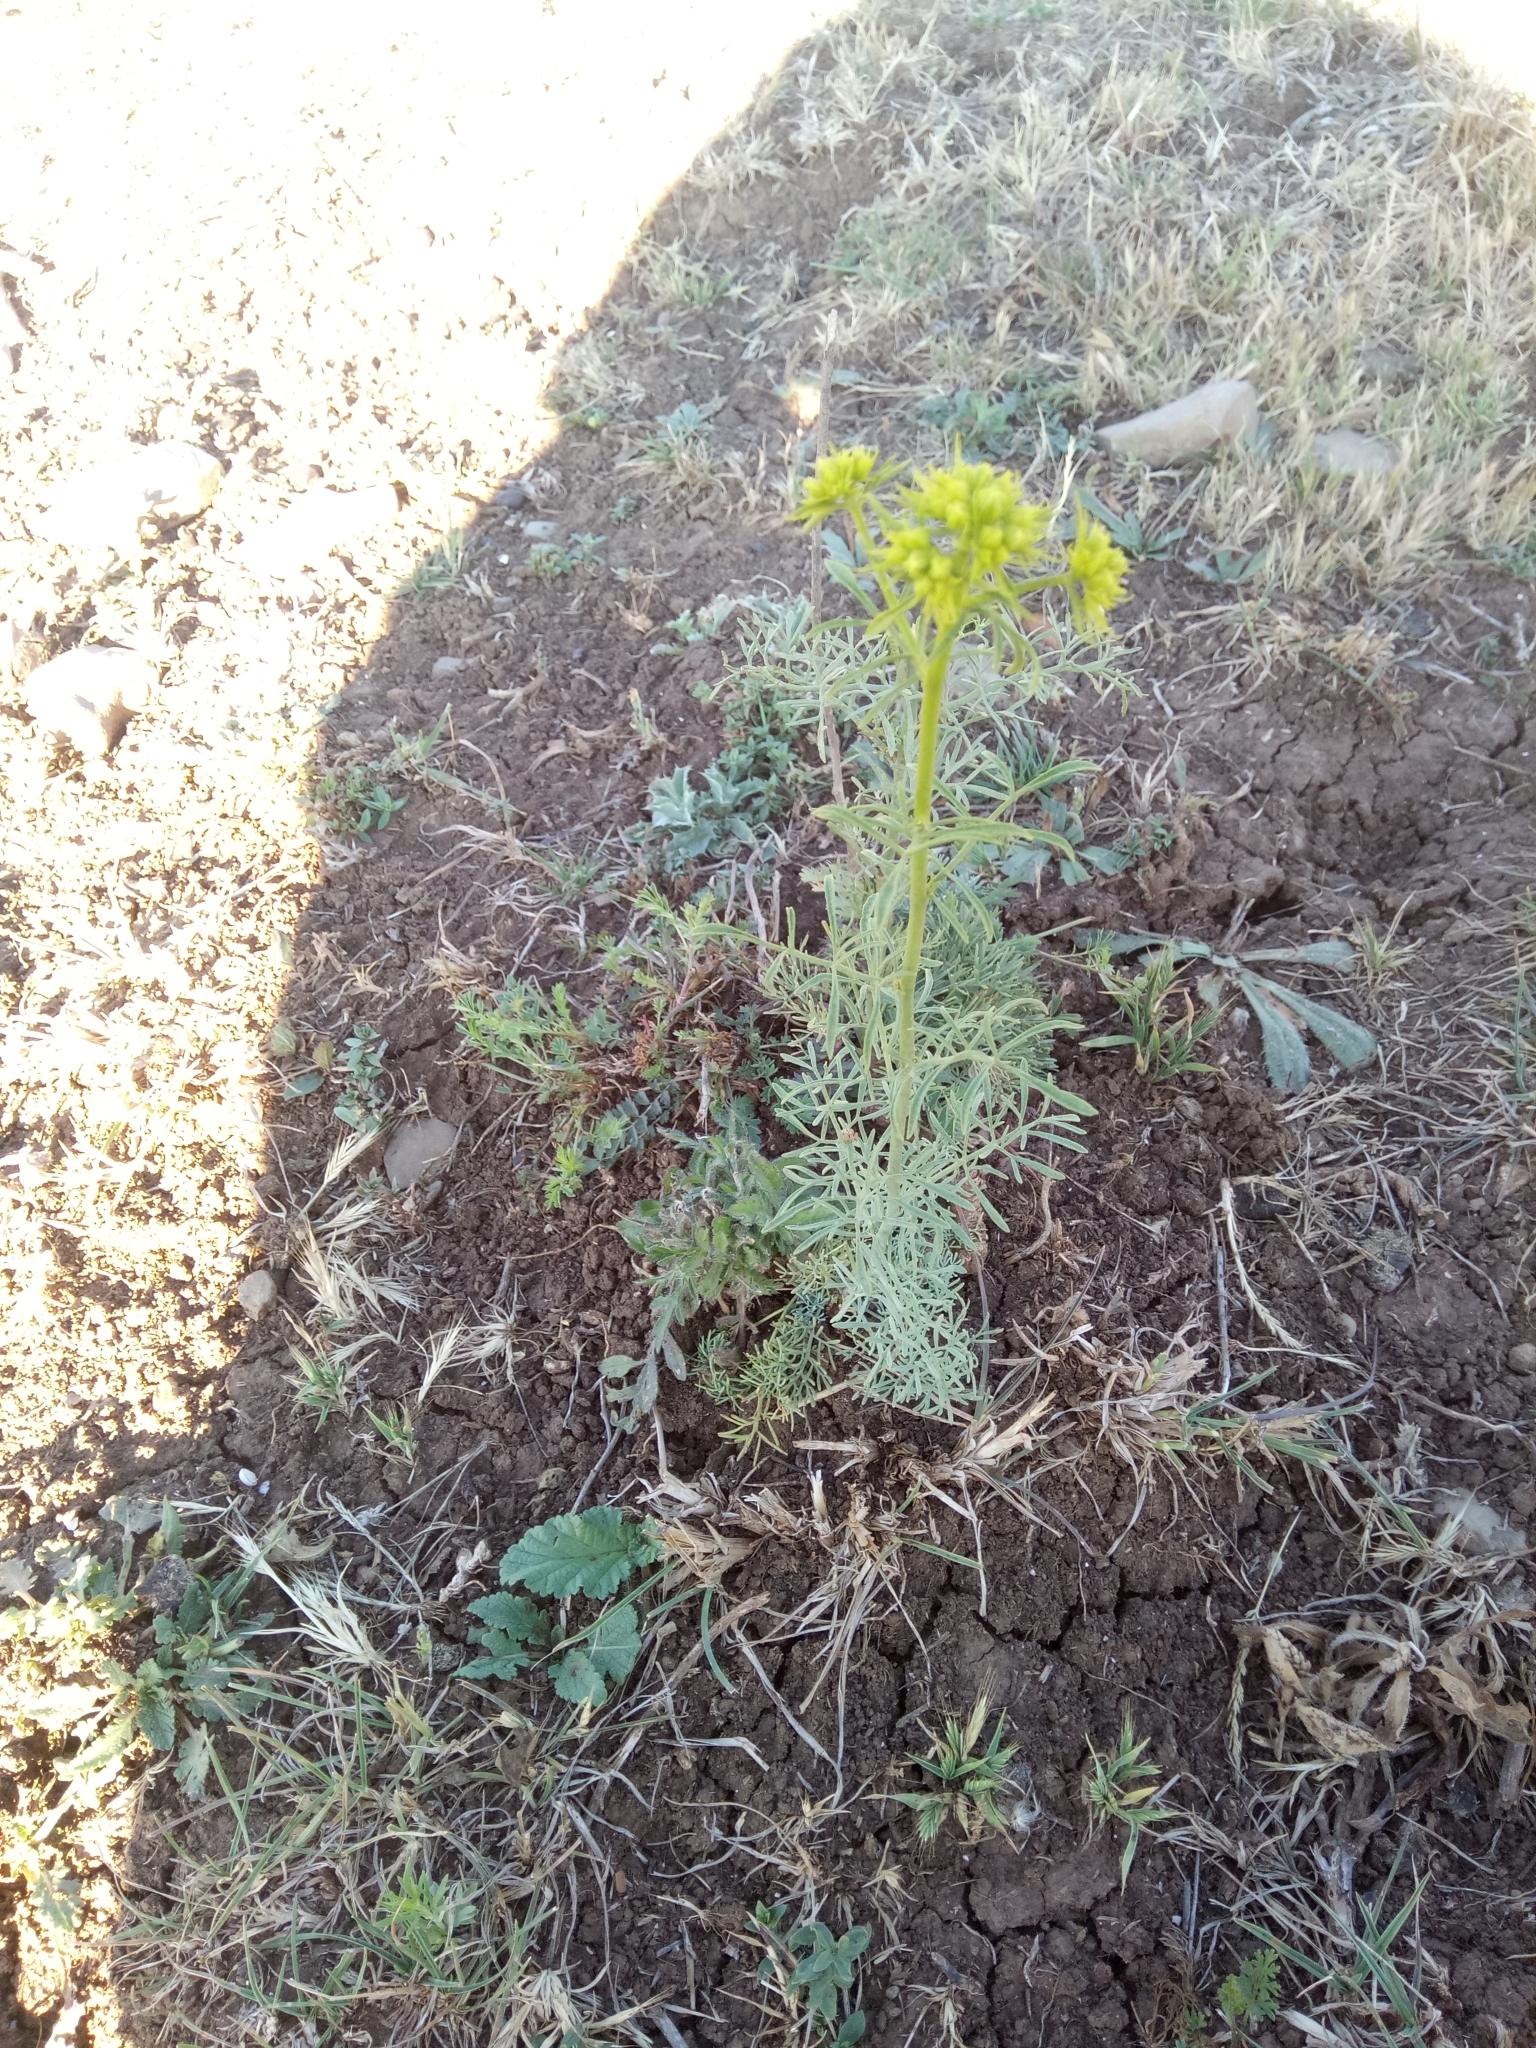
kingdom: Plantae
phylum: Tracheophyta
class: Magnoliopsida
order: Sapindales
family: Rutaceae
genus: Ruta
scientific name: Ruta montana
